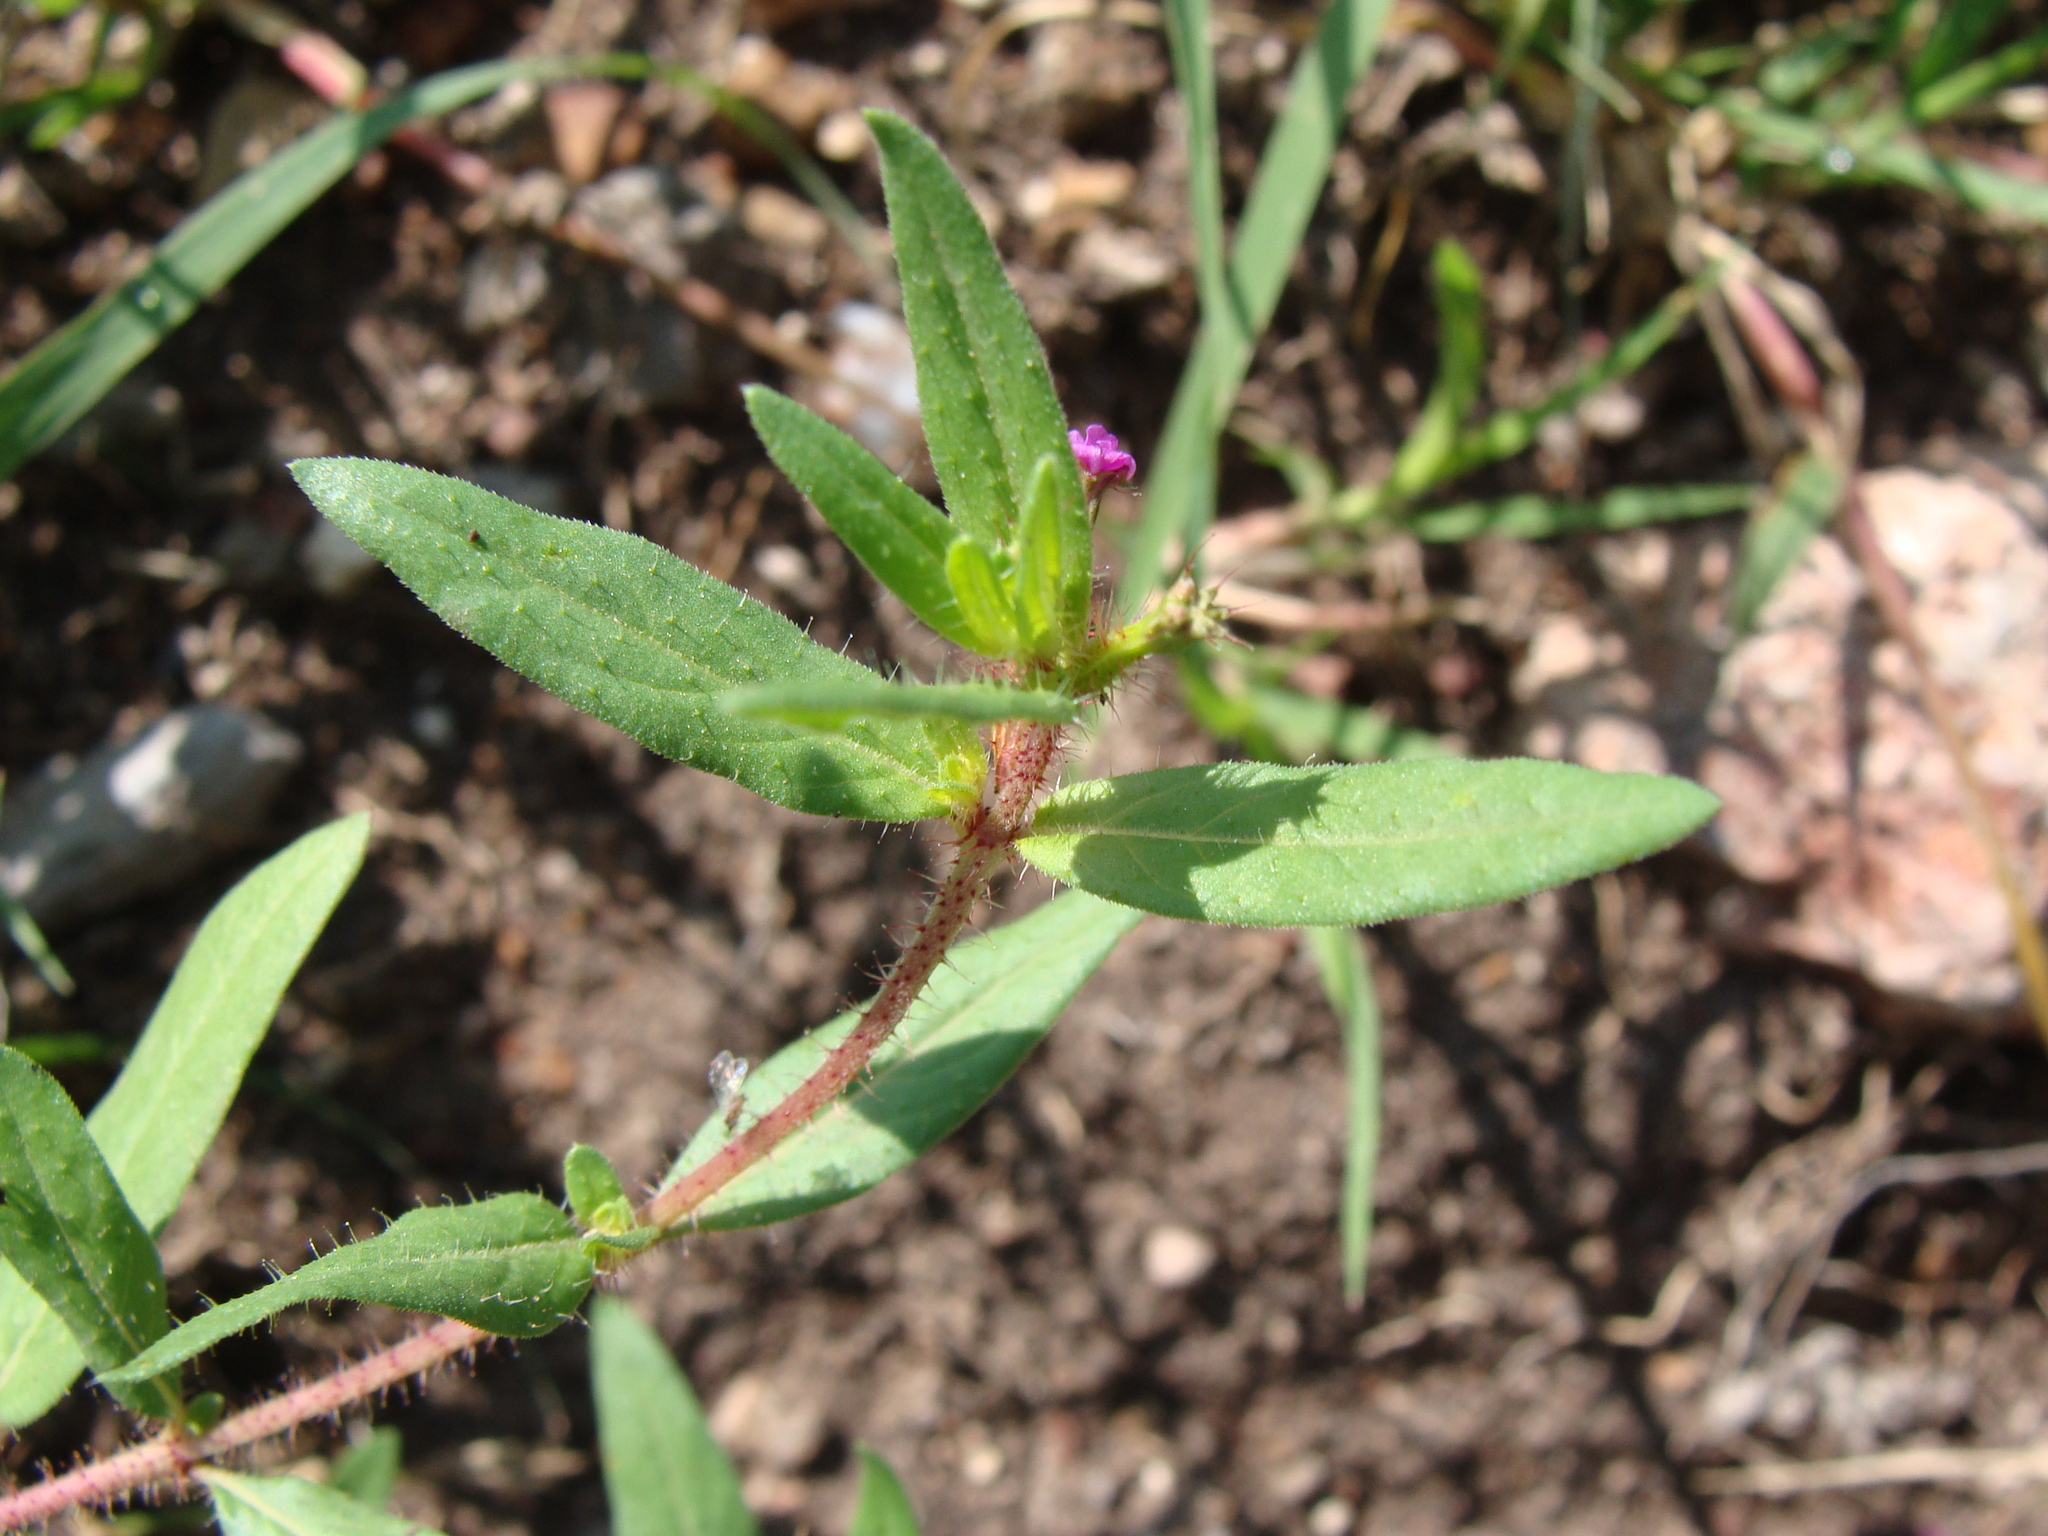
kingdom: Plantae
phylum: Tracheophyta
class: Magnoliopsida
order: Myrtales
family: Lythraceae
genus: Cuphea
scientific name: Cuphea wrightii
